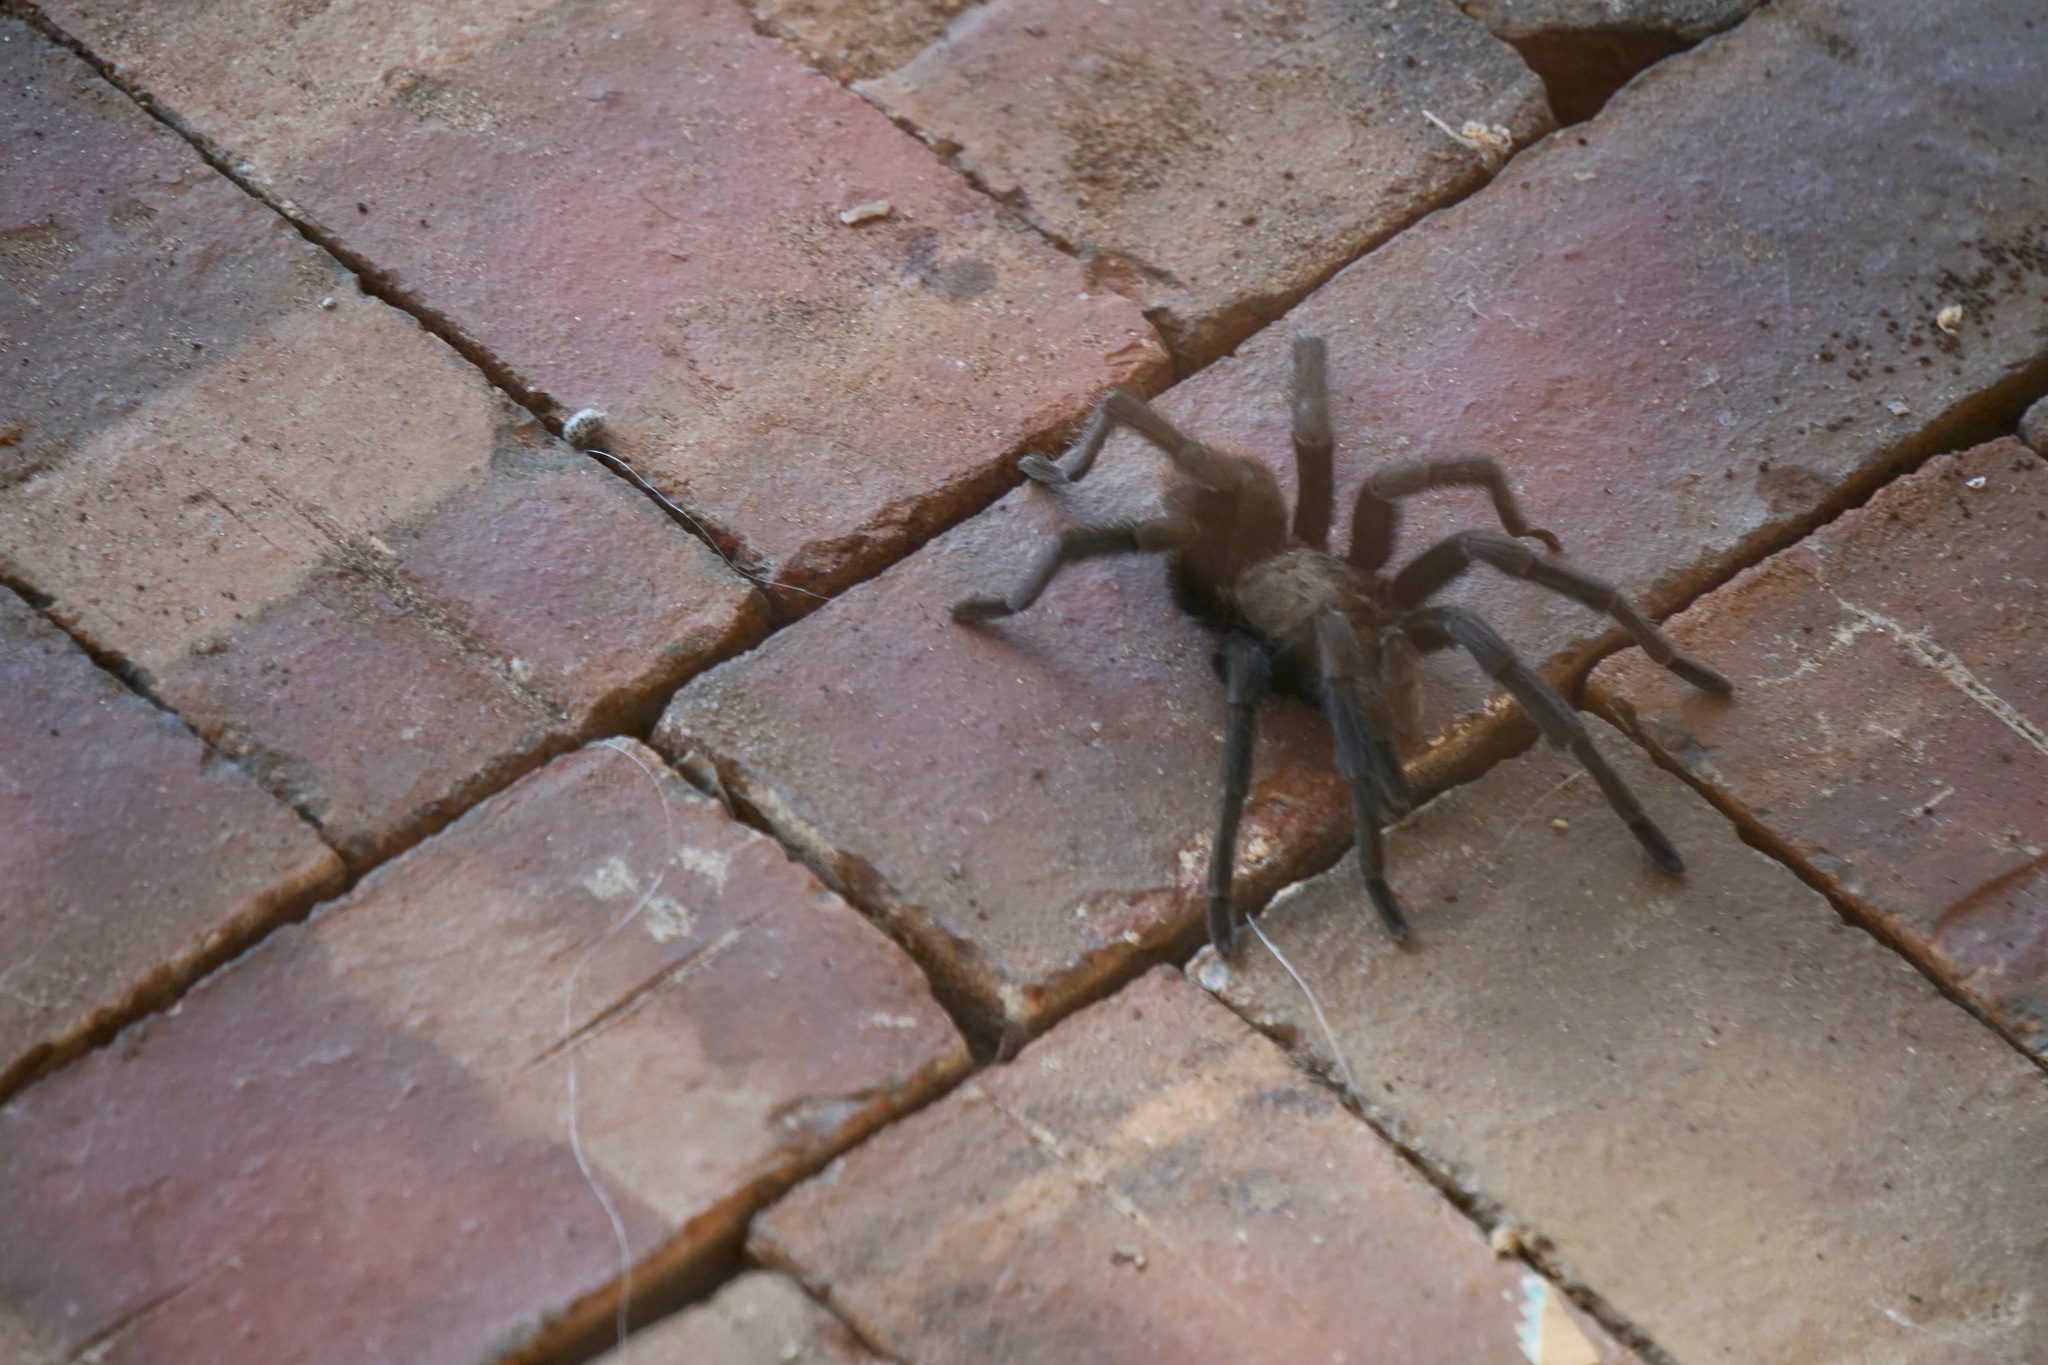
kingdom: Animalia
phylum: Arthropoda
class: Arachnida
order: Araneae
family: Theraphosidae
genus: Aphonopelma
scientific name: Aphonopelma anax
